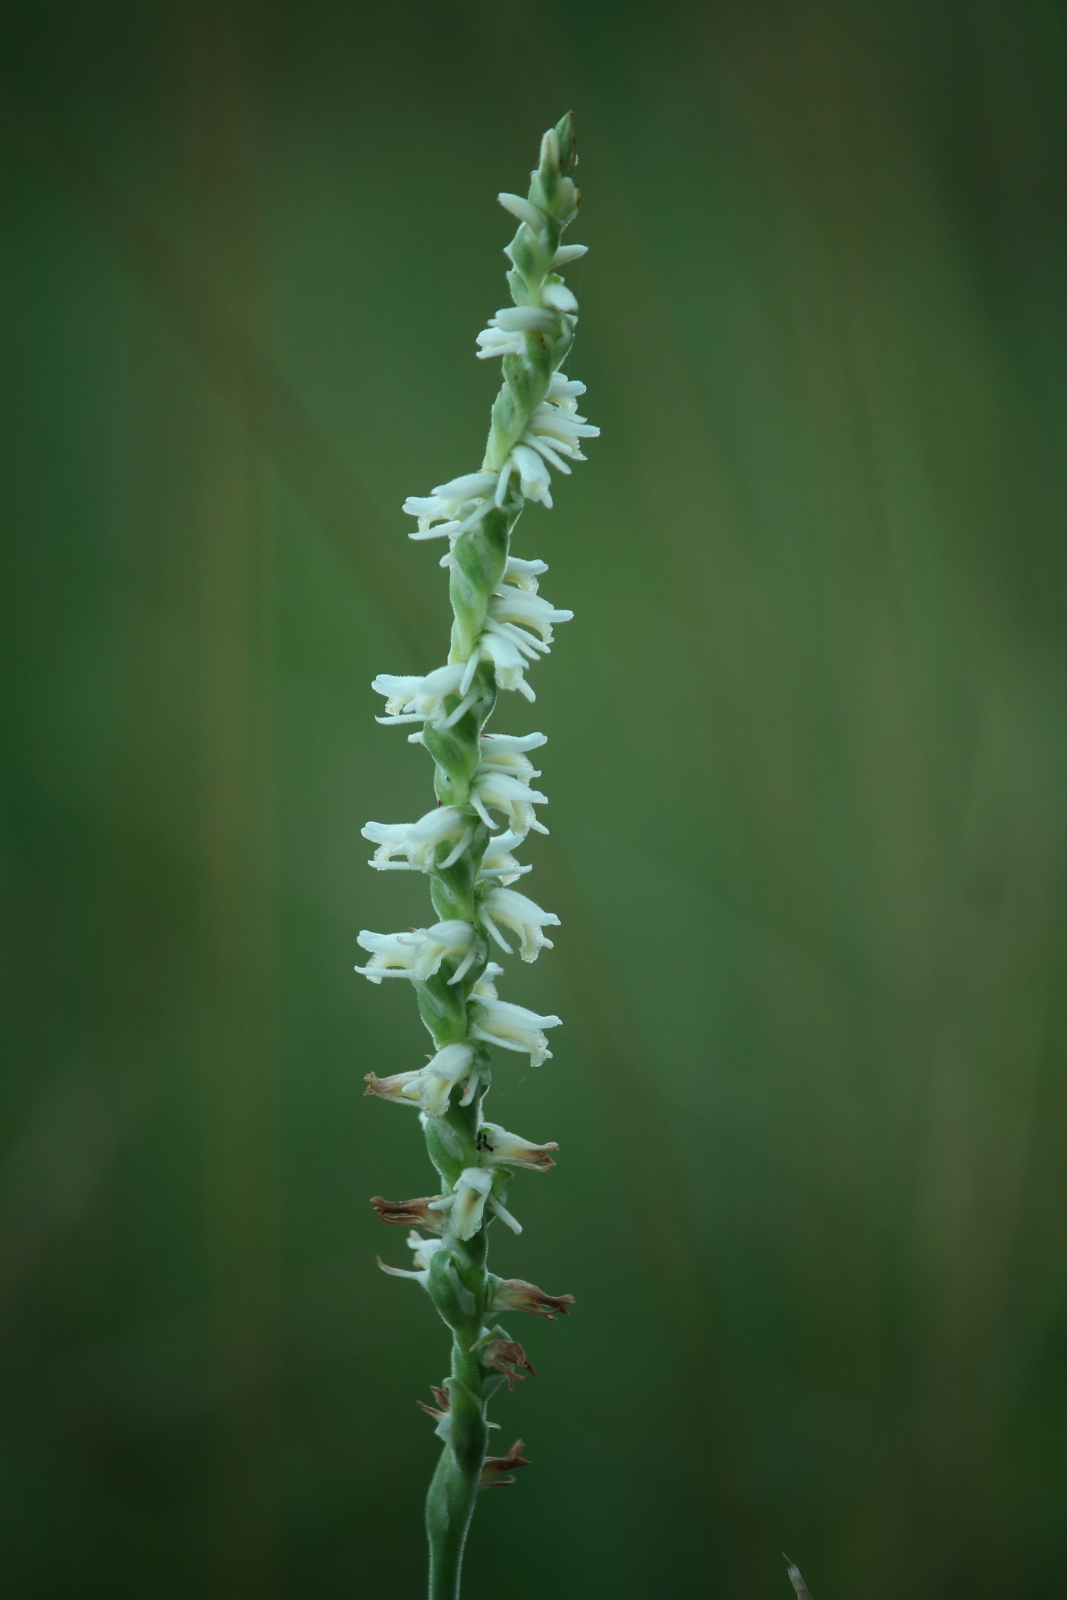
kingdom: Plantae
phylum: Tracheophyta
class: Liliopsida
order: Asparagales
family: Orchidaceae
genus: Spiranthes
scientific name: Spiranthes vernalis
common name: Spring ladies'-tresses
